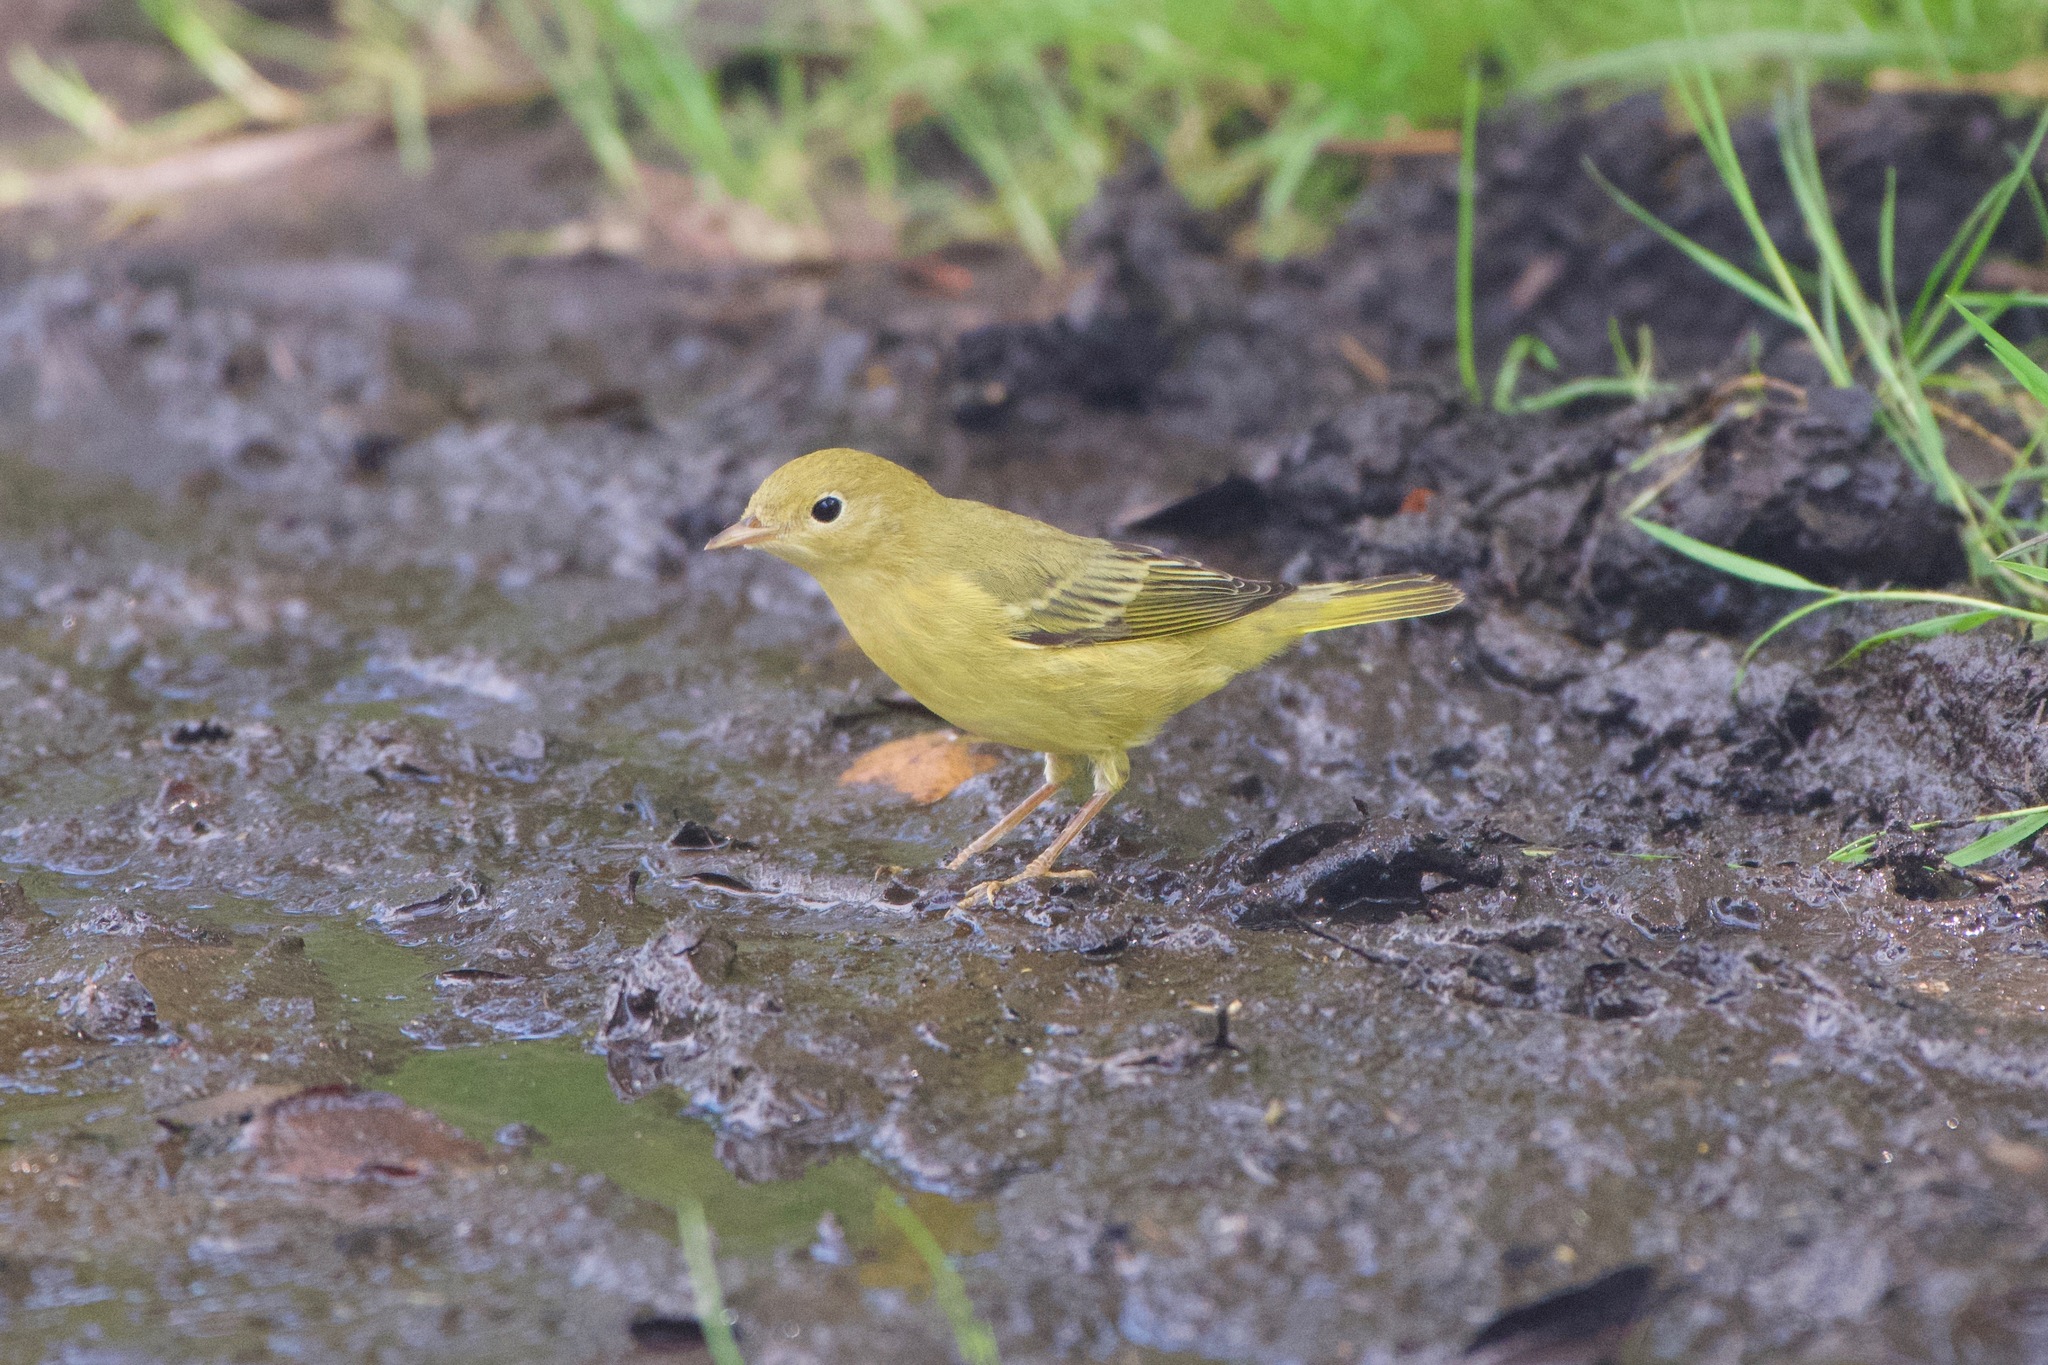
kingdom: Animalia
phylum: Chordata
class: Aves
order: Passeriformes
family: Parulidae
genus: Setophaga
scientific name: Setophaga petechia
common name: Yellow warbler
